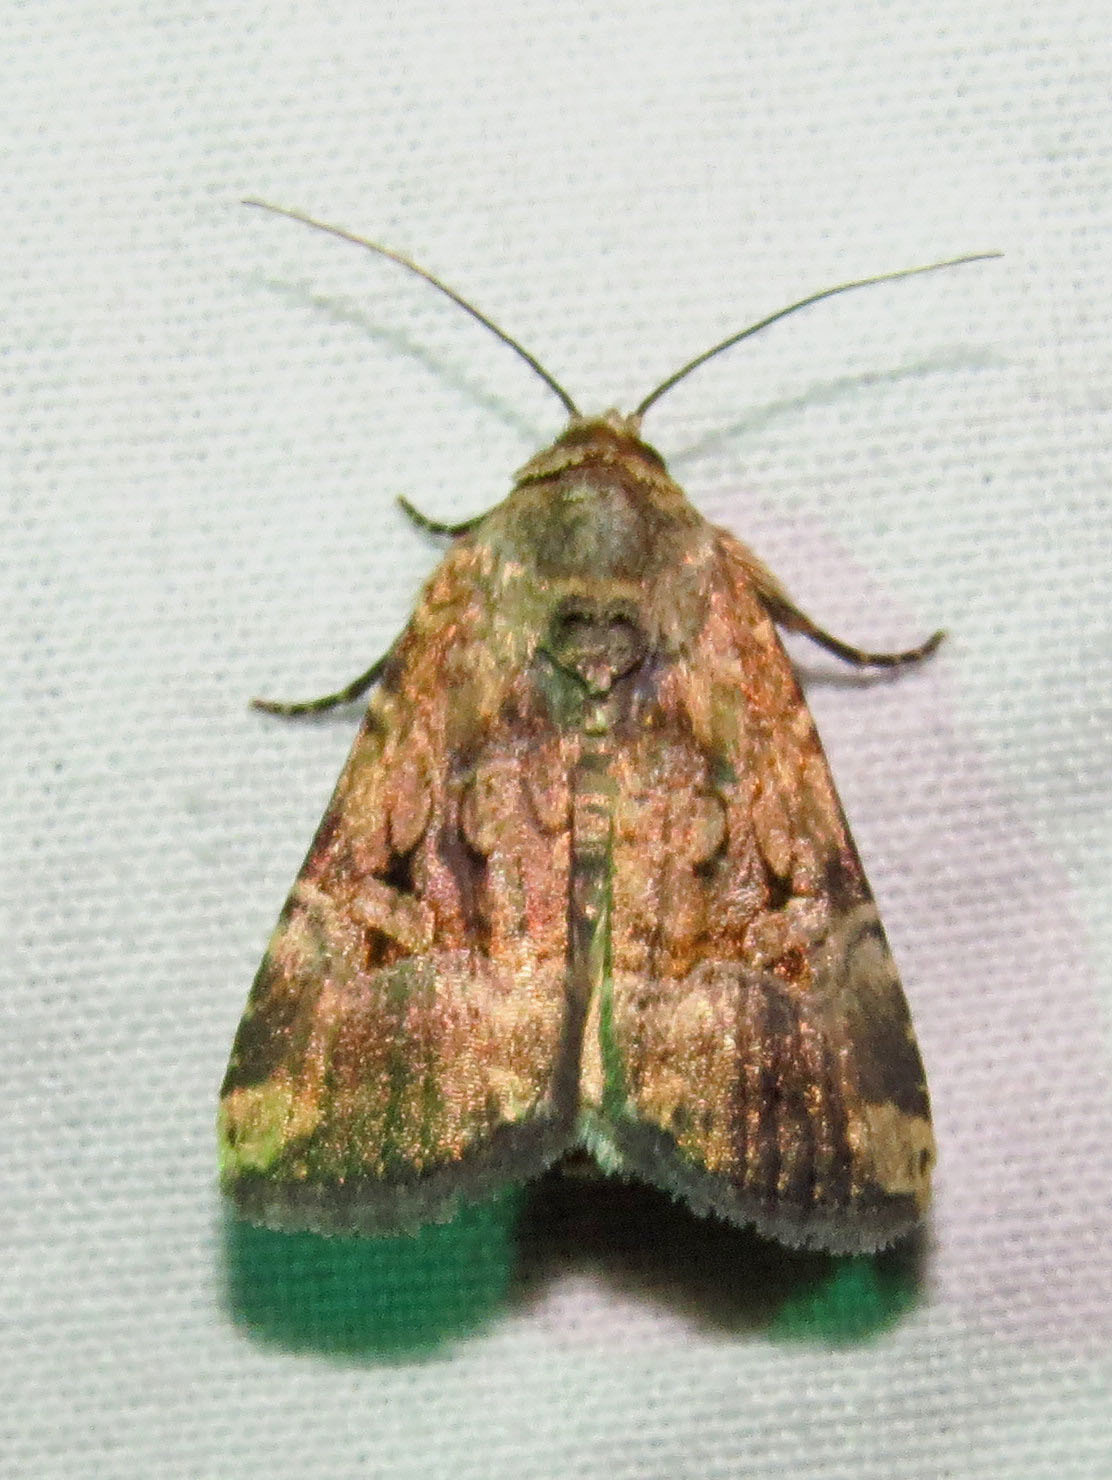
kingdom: Animalia
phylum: Arthropoda
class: Insecta
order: Lepidoptera
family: Noctuidae
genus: Elaphria
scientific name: Elaphria chalcedonia
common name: Chalcedony midget
